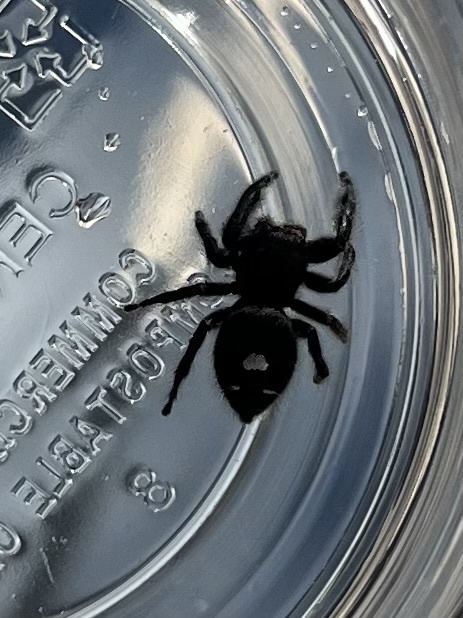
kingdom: Animalia
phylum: Arthropoda
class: Arachnida
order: Araneae
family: Salticidae
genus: Phidippus
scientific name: Phidippus audax
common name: Bold jumper
